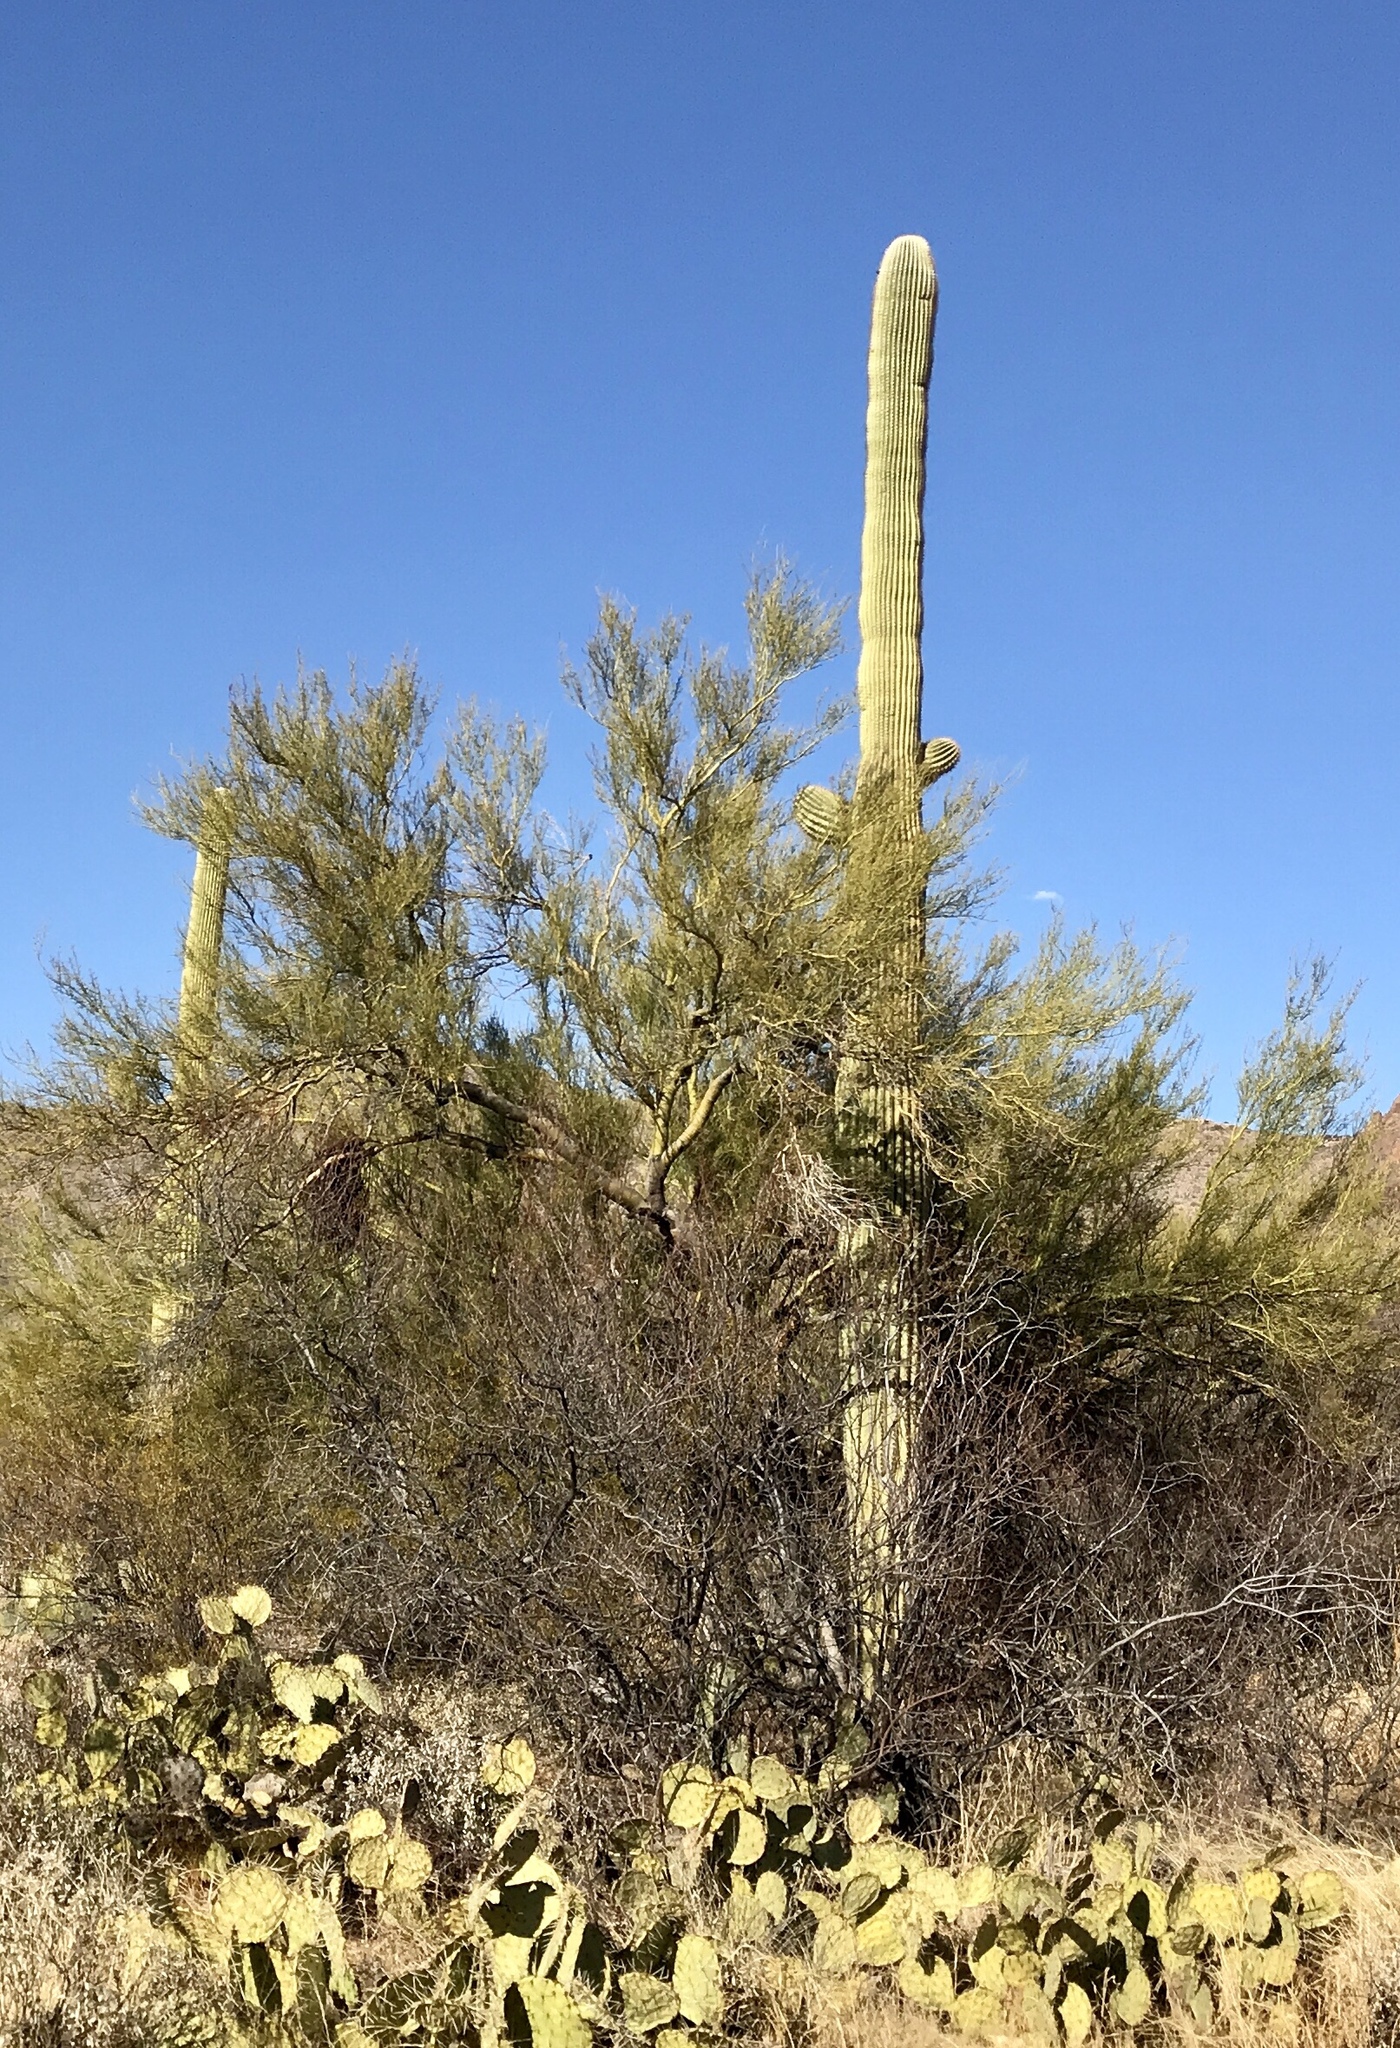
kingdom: Plantae
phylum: Tracheophyta
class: Magnoliopsida
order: Fabales
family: Fabaceae
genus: Parkinsonia
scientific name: Parkinsonia microphylla
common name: Yellow paloverde
